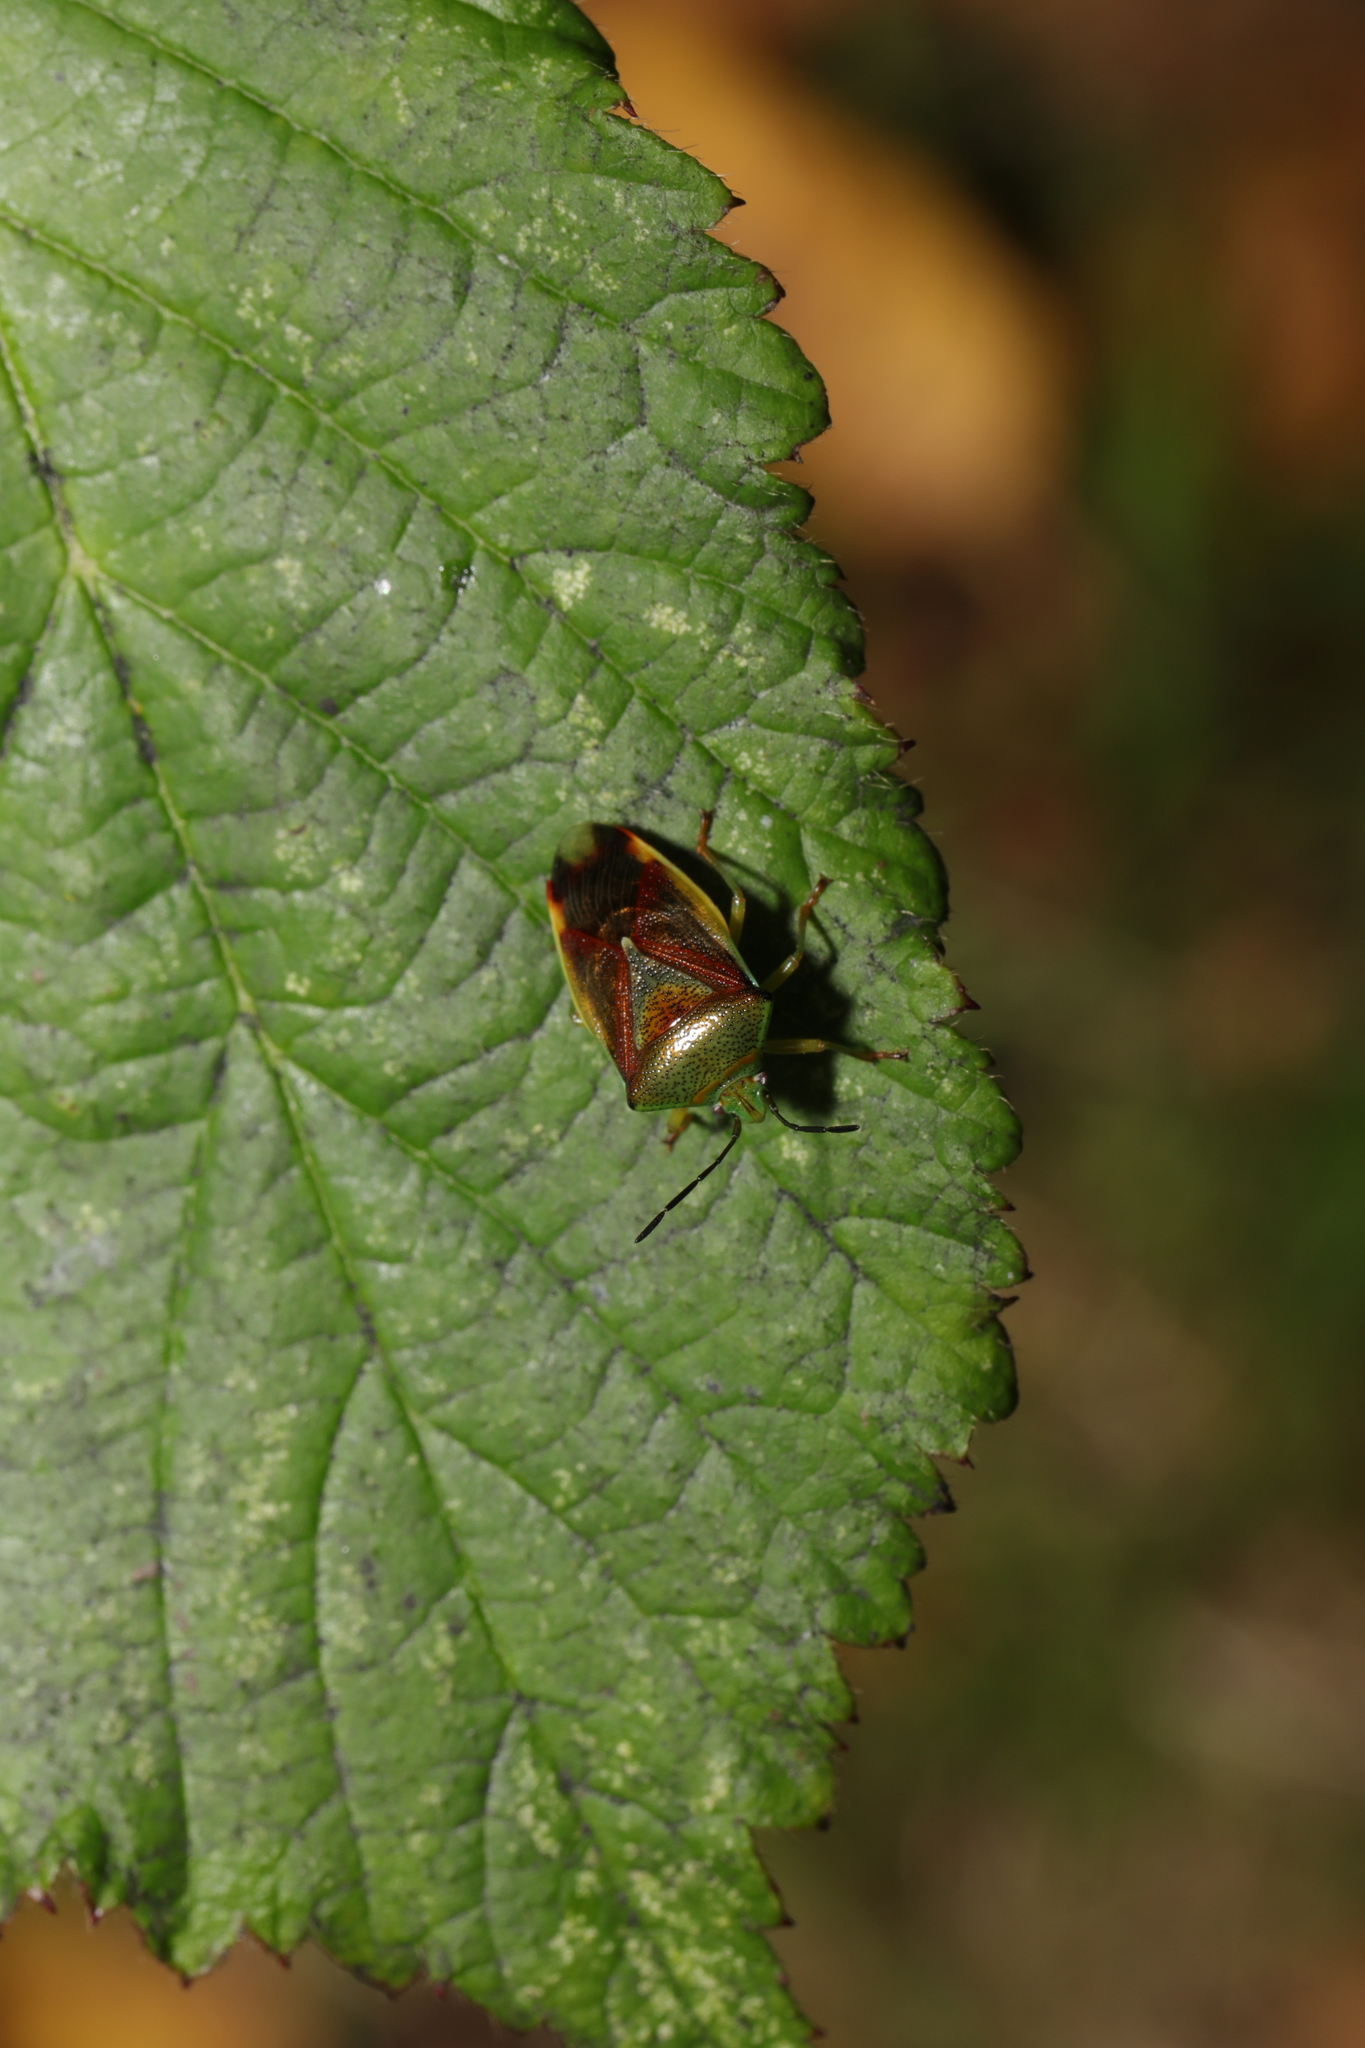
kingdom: Animalia
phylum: Arthropoda
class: Insecta
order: Hemiptera
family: Acanthosomatidae
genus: Elasmostethus
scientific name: Elasmostethus interstinctus
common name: Birch shieldbug
